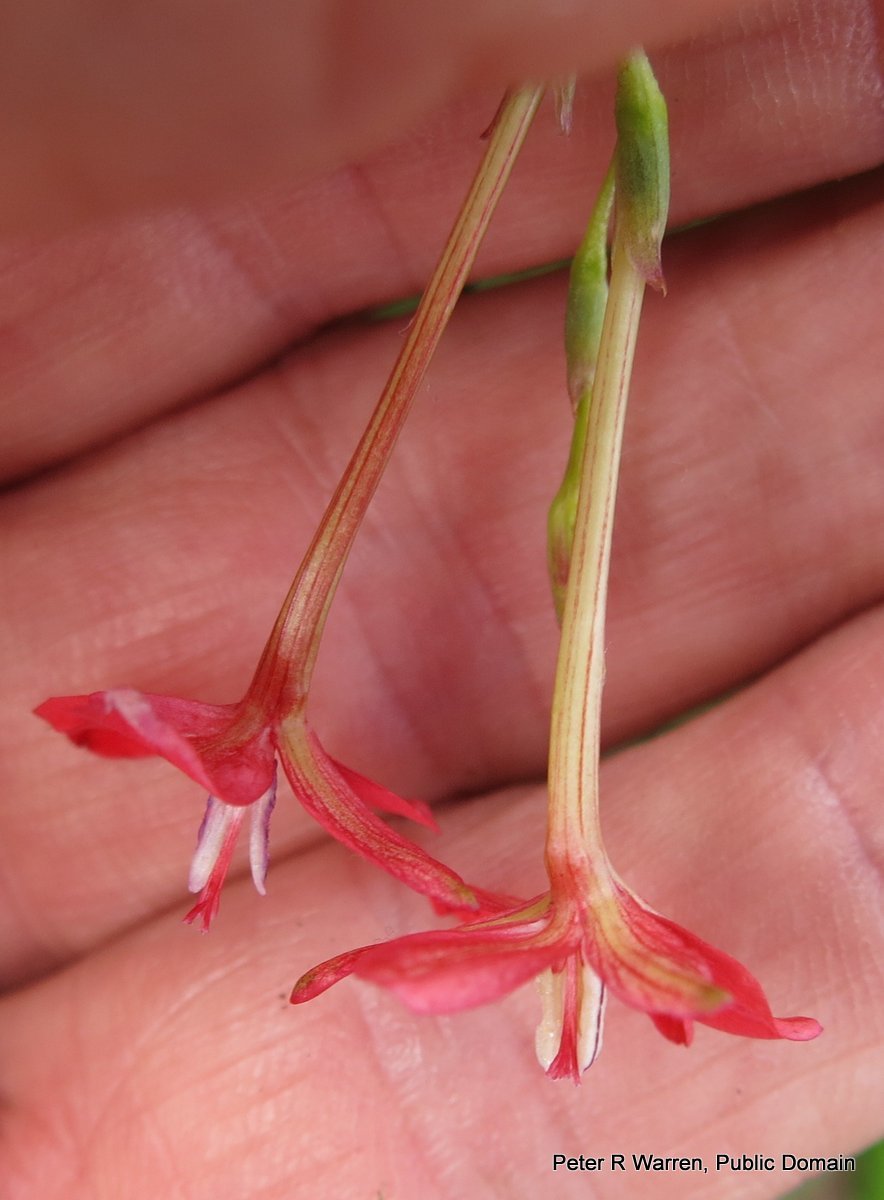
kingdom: Plantae
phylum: Tracheophyta
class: Liliopsida
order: Asparagales
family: Iridaceae
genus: Freesia
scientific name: Freesia laxa
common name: False freesia
